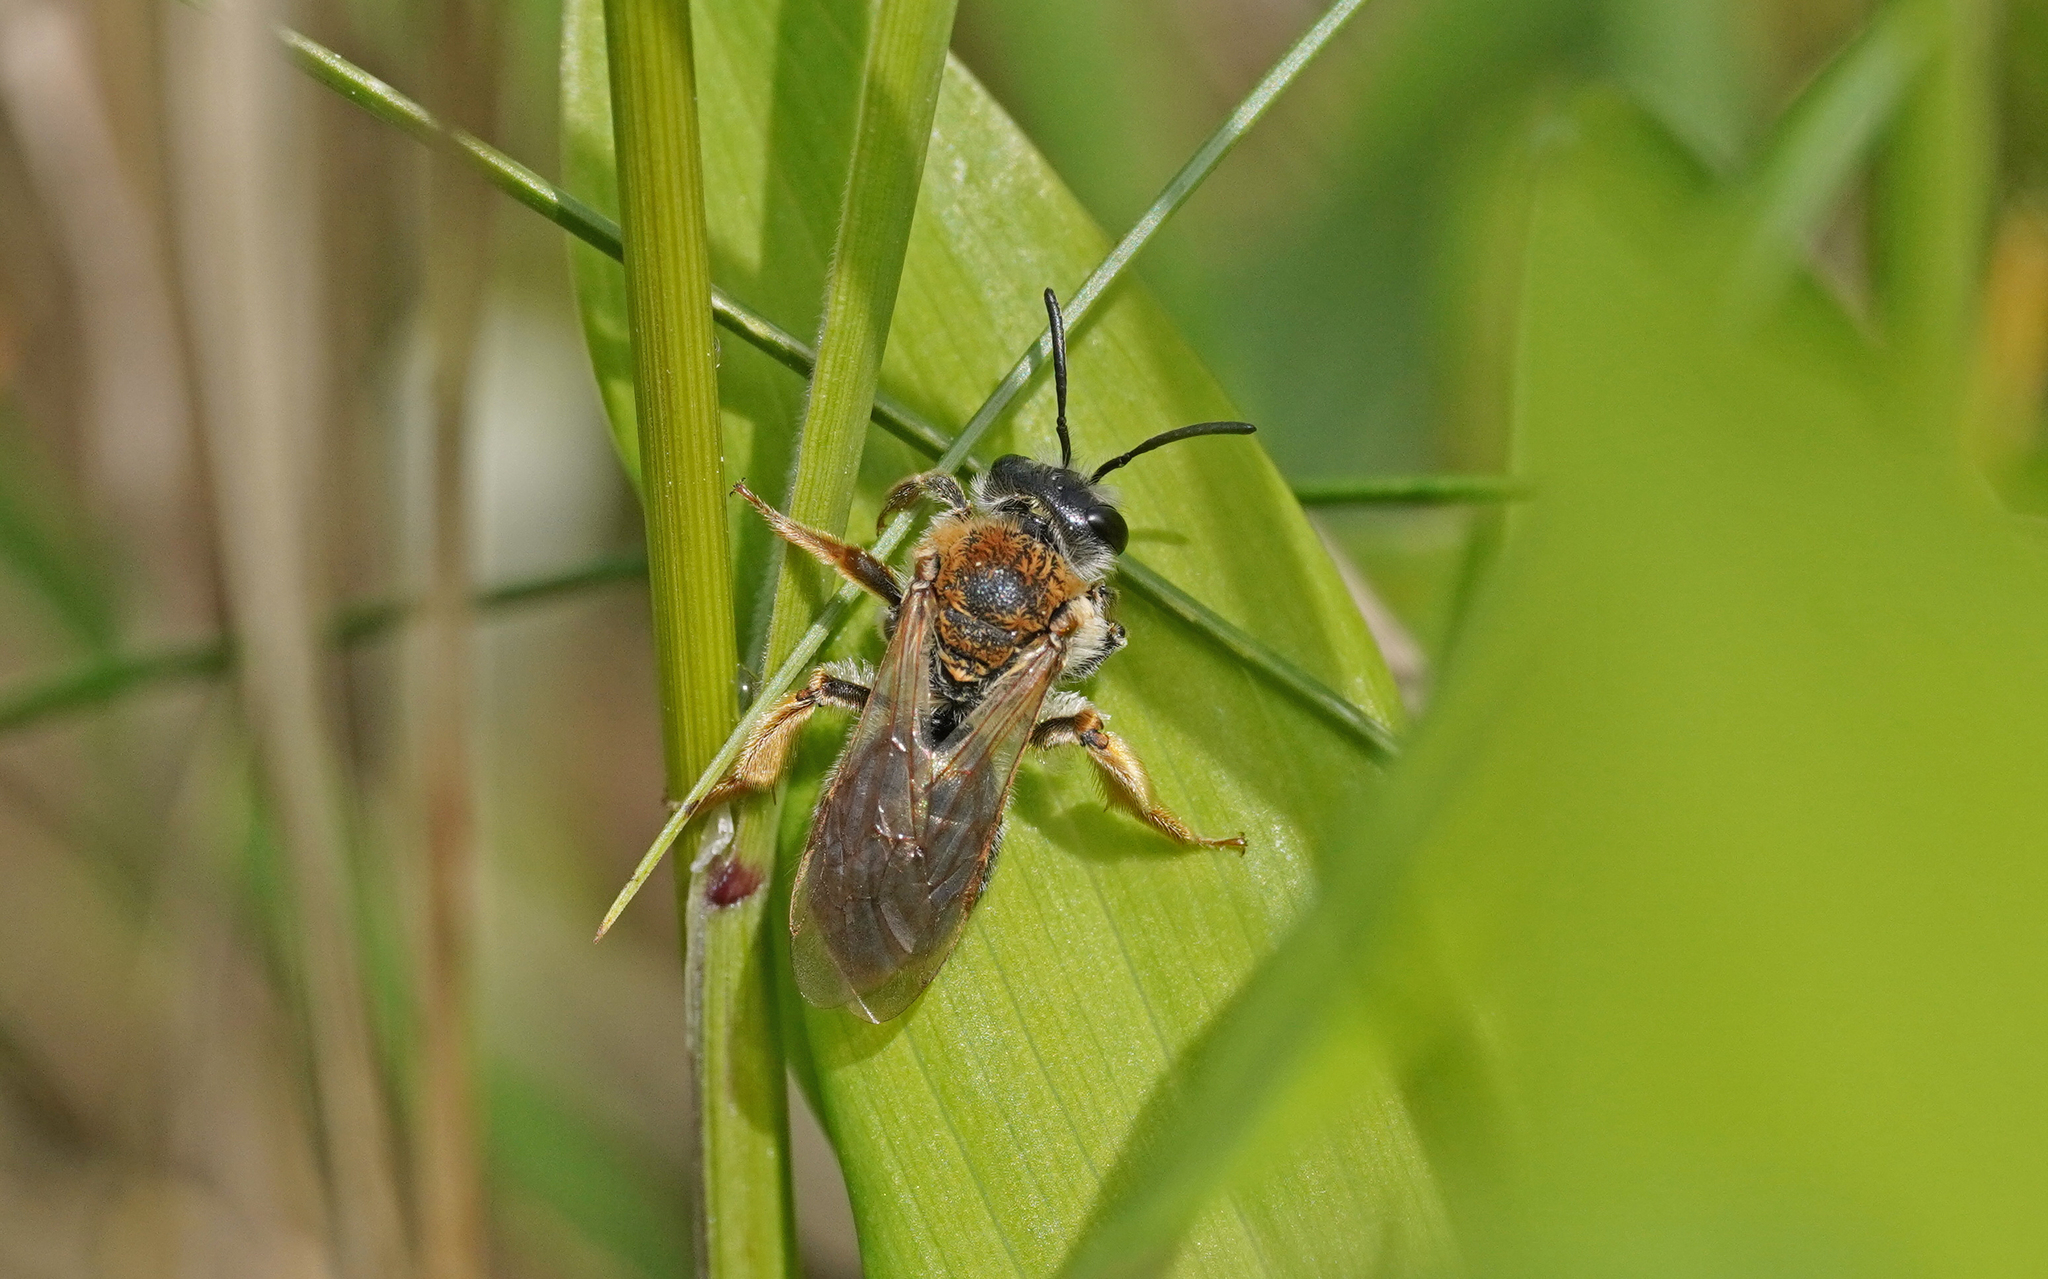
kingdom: Animalia
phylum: Arthropoda
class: Insecta
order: Hymenoptera
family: Andrenidae
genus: Andrena
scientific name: Andrena haemorrhoa
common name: Early mining bee
